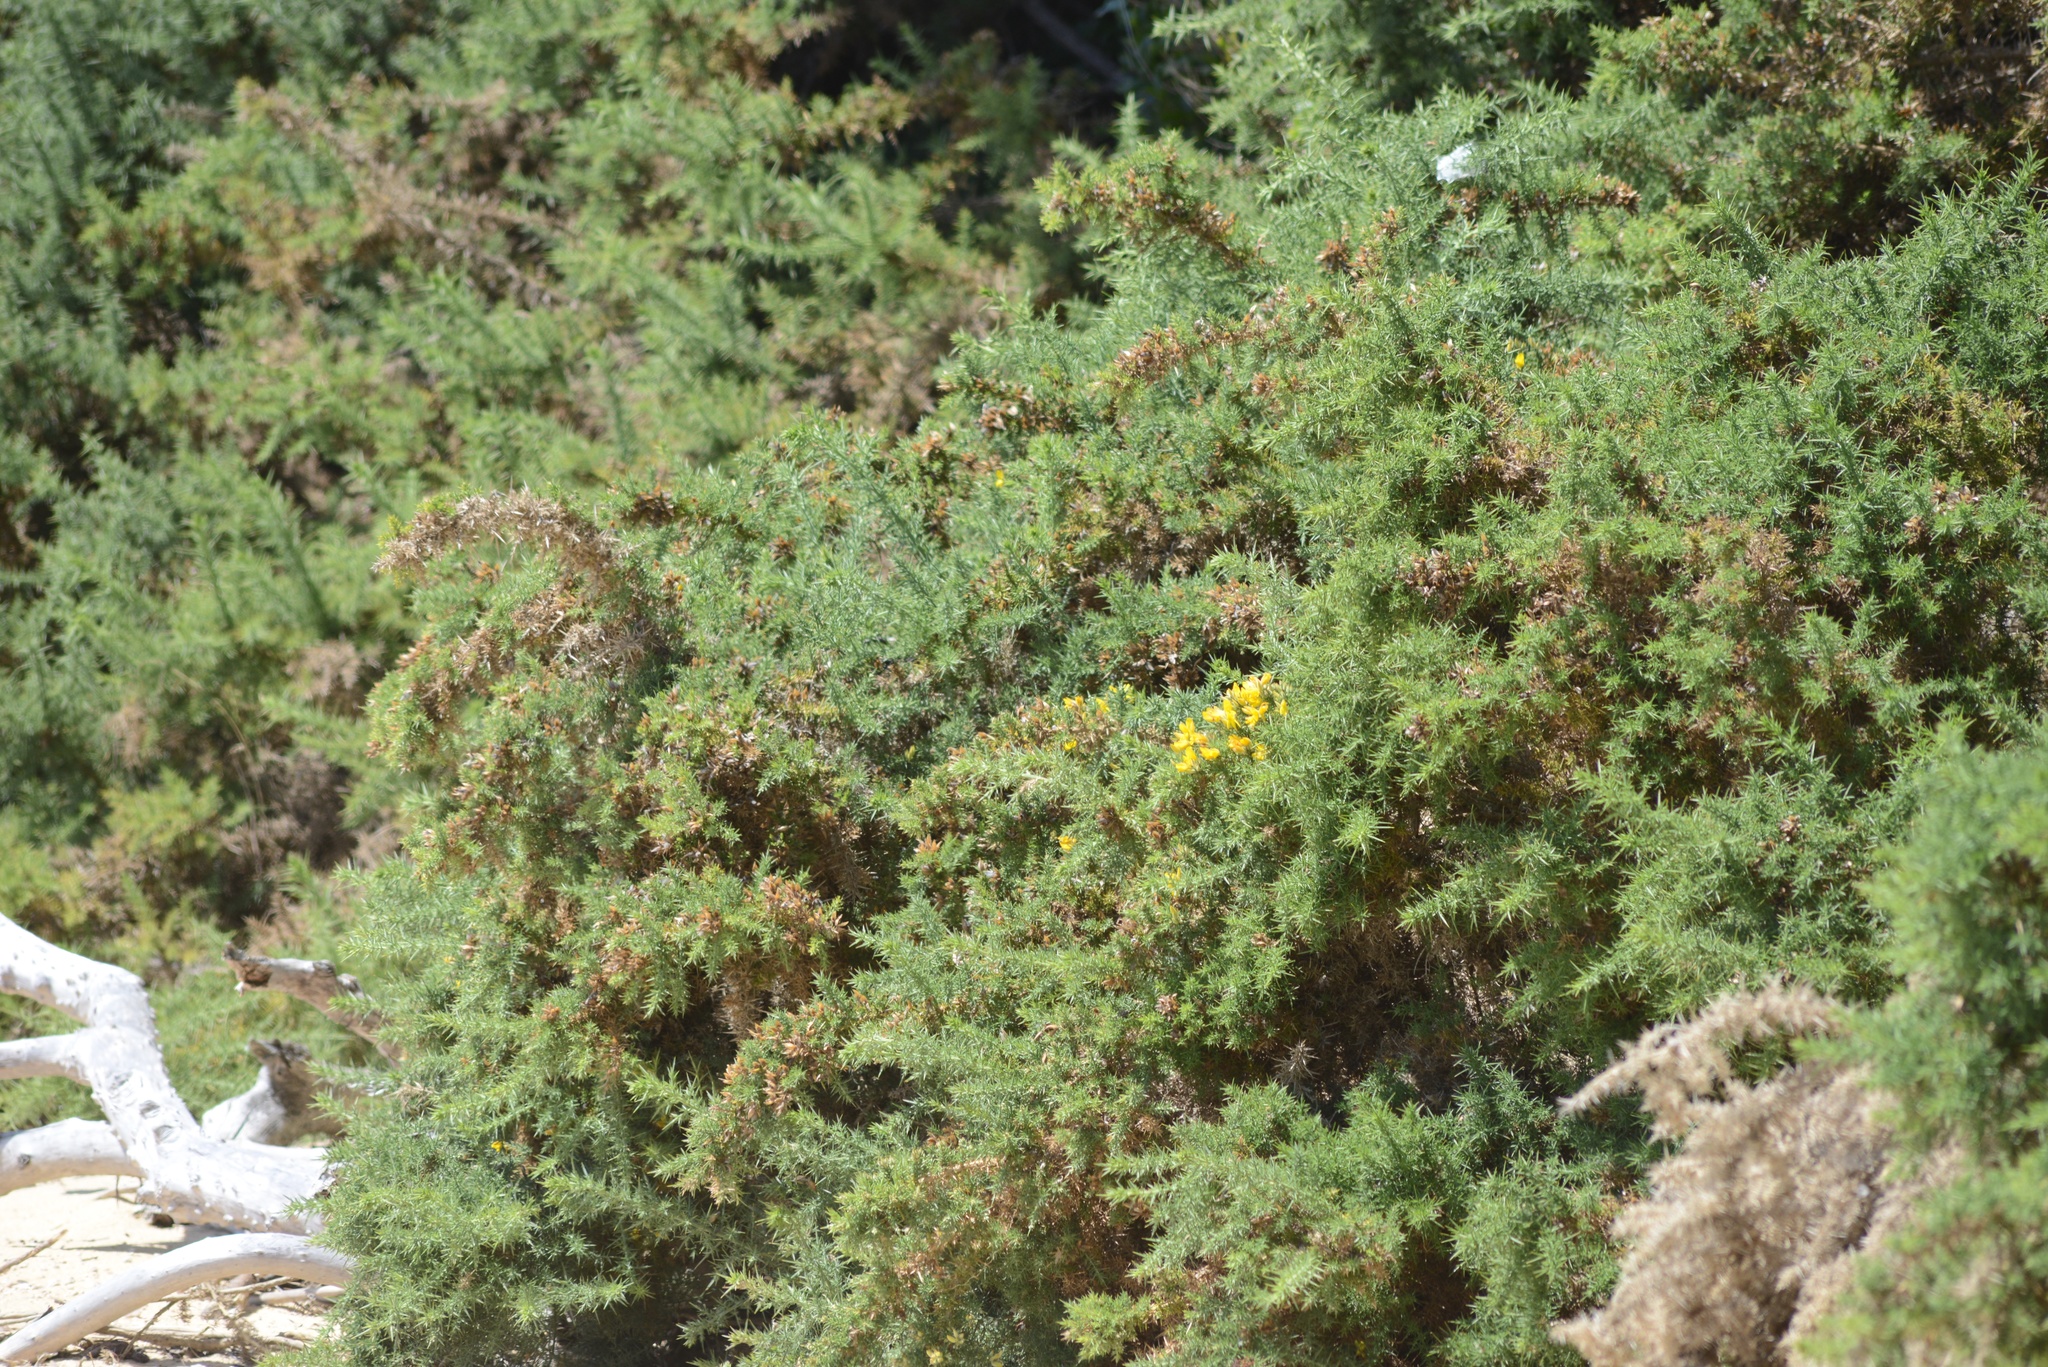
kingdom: Plantae
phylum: Tracheophyta
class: Magnoliopsida
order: Fabales
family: Fabaceae
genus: Ulex
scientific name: Ulex europaeus
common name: Common gorse
